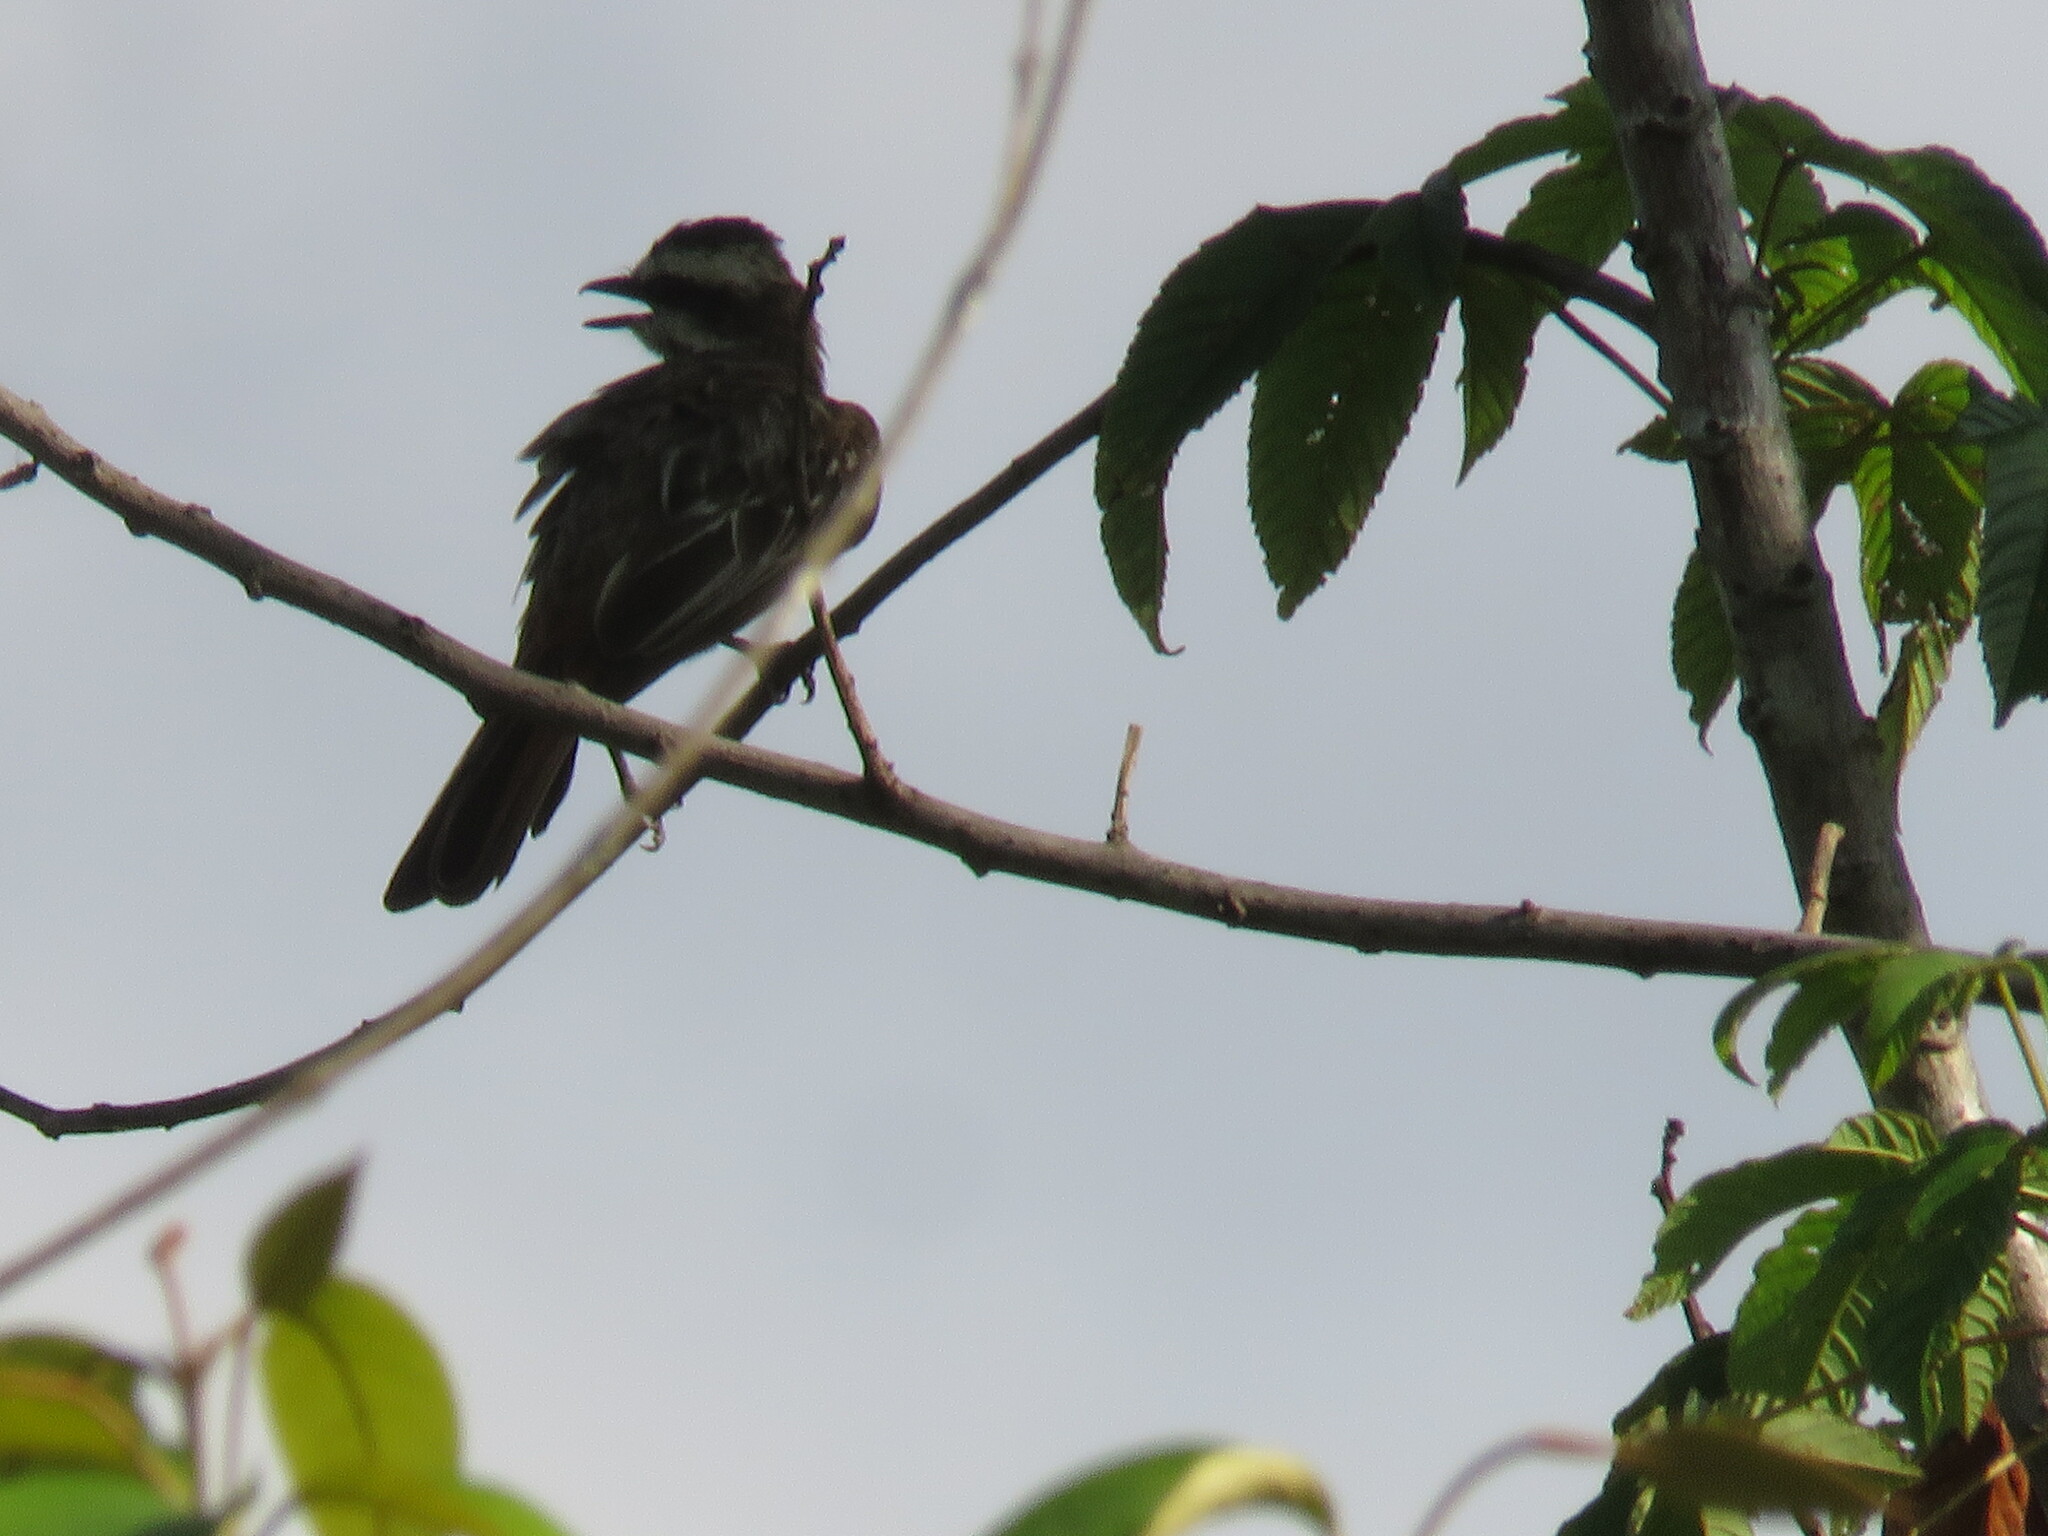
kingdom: Animalia
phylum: Chordata
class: Aves
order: Passeriformes
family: Tyrannidae
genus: Empidonomus
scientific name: Empidonomus varius
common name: Variegated flycatcher
